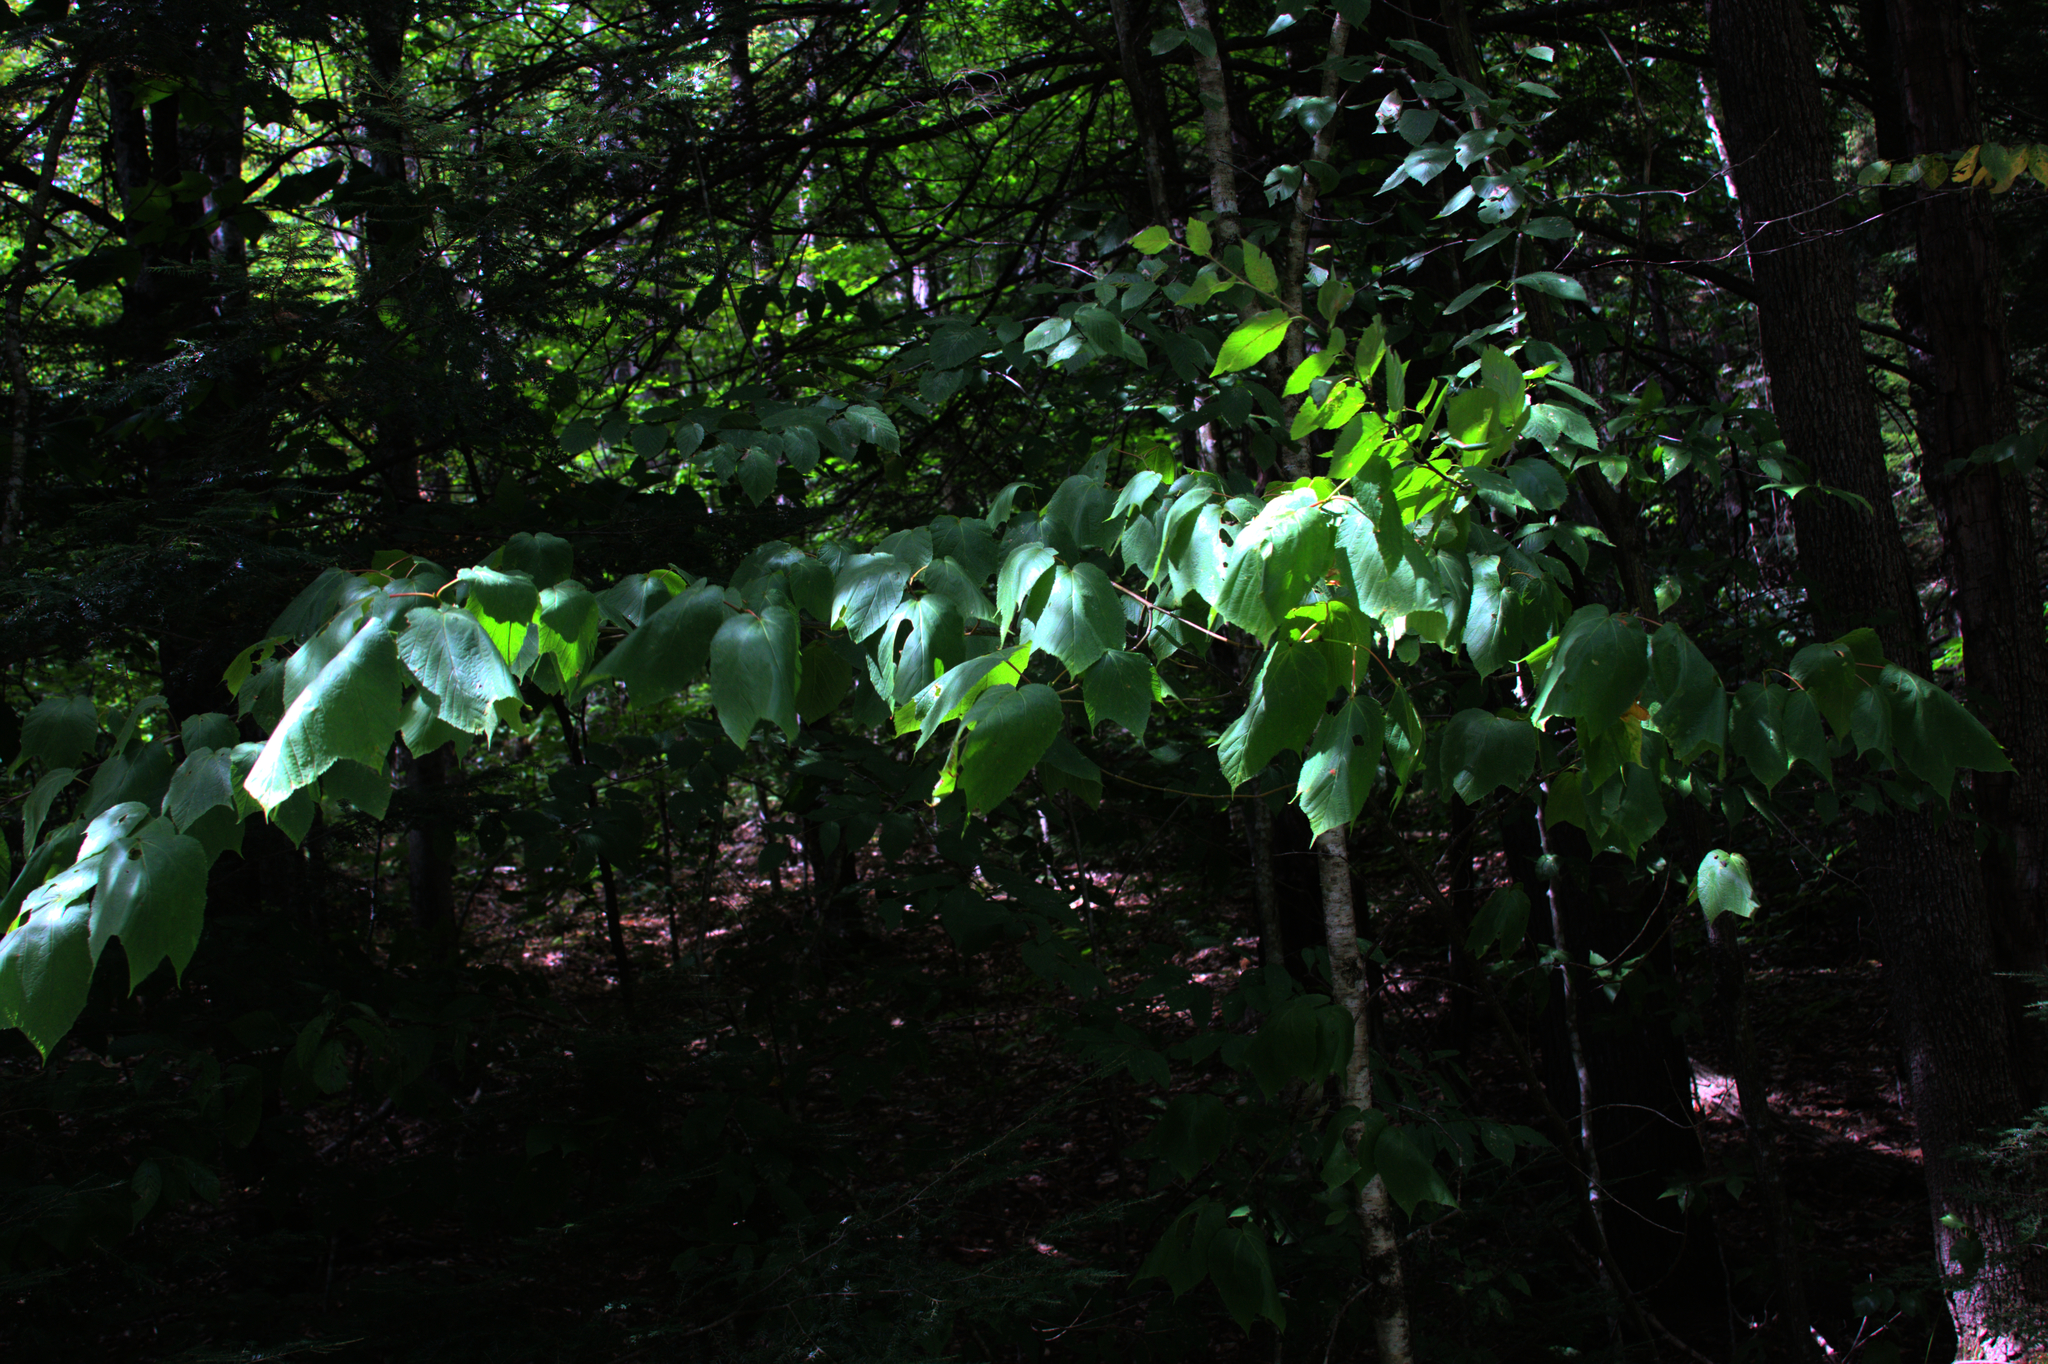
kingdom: Plantae
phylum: Tracheophyta
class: Magnoliopsida
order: Sapindales
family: Sapindaceae
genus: Acer
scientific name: Acer pensylvanicum
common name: Moosewood
